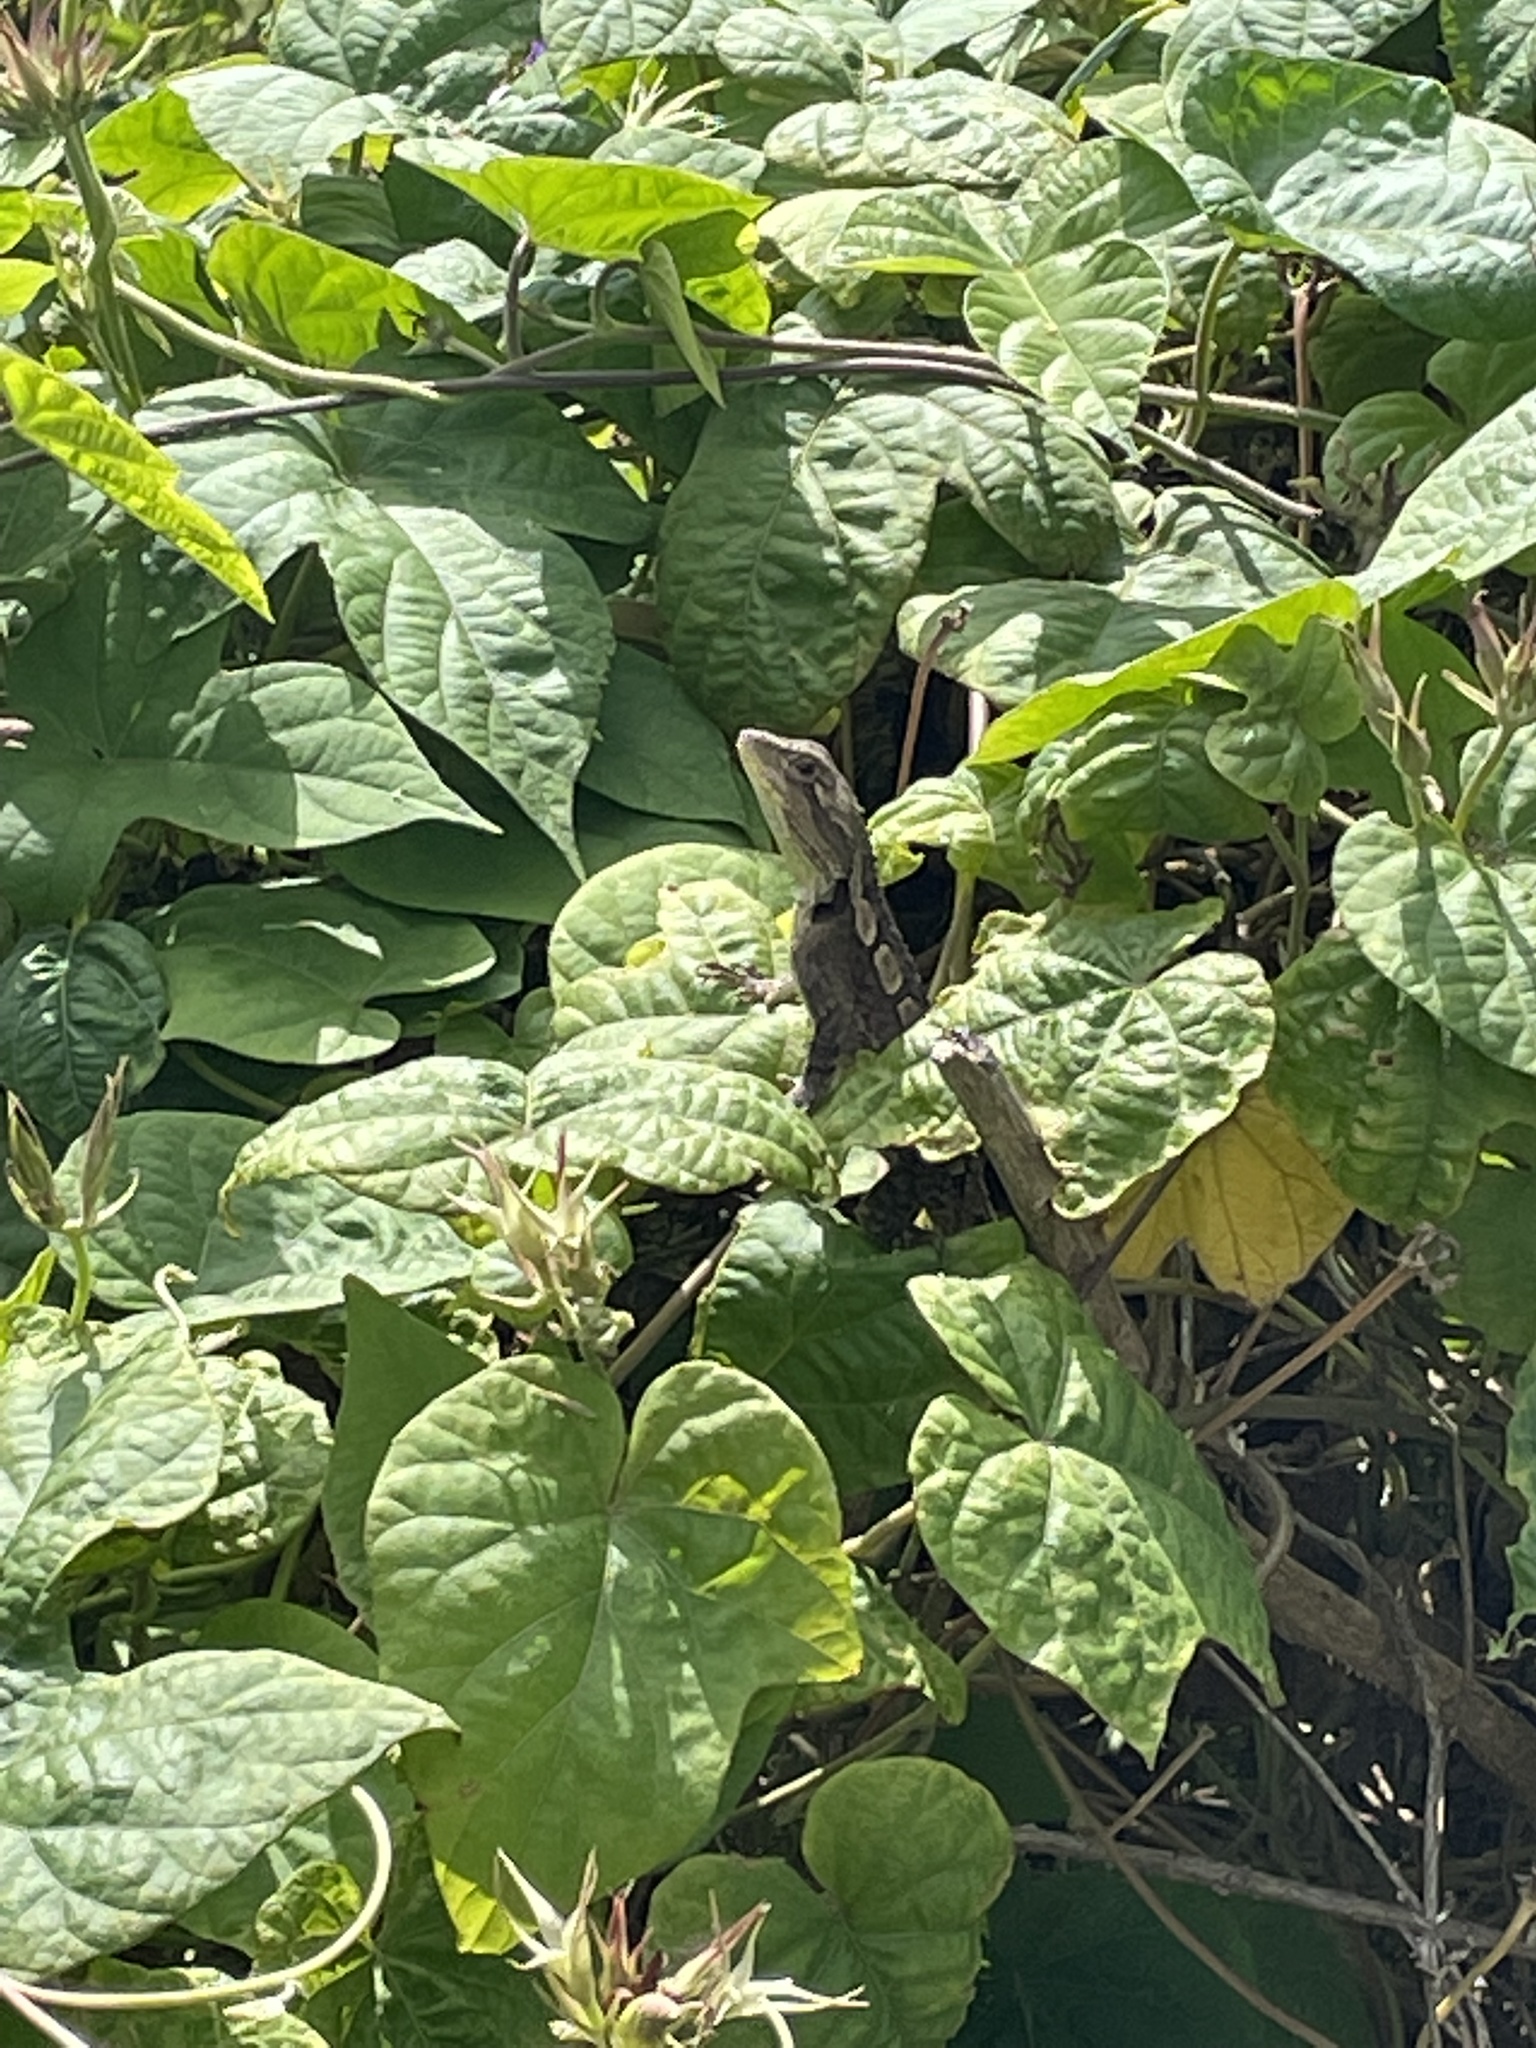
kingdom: Animalia
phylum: Chordata
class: Squamata
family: Agamidae
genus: Amphibolurus
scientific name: Amphibolurus muricatus
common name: Jacky lizard
